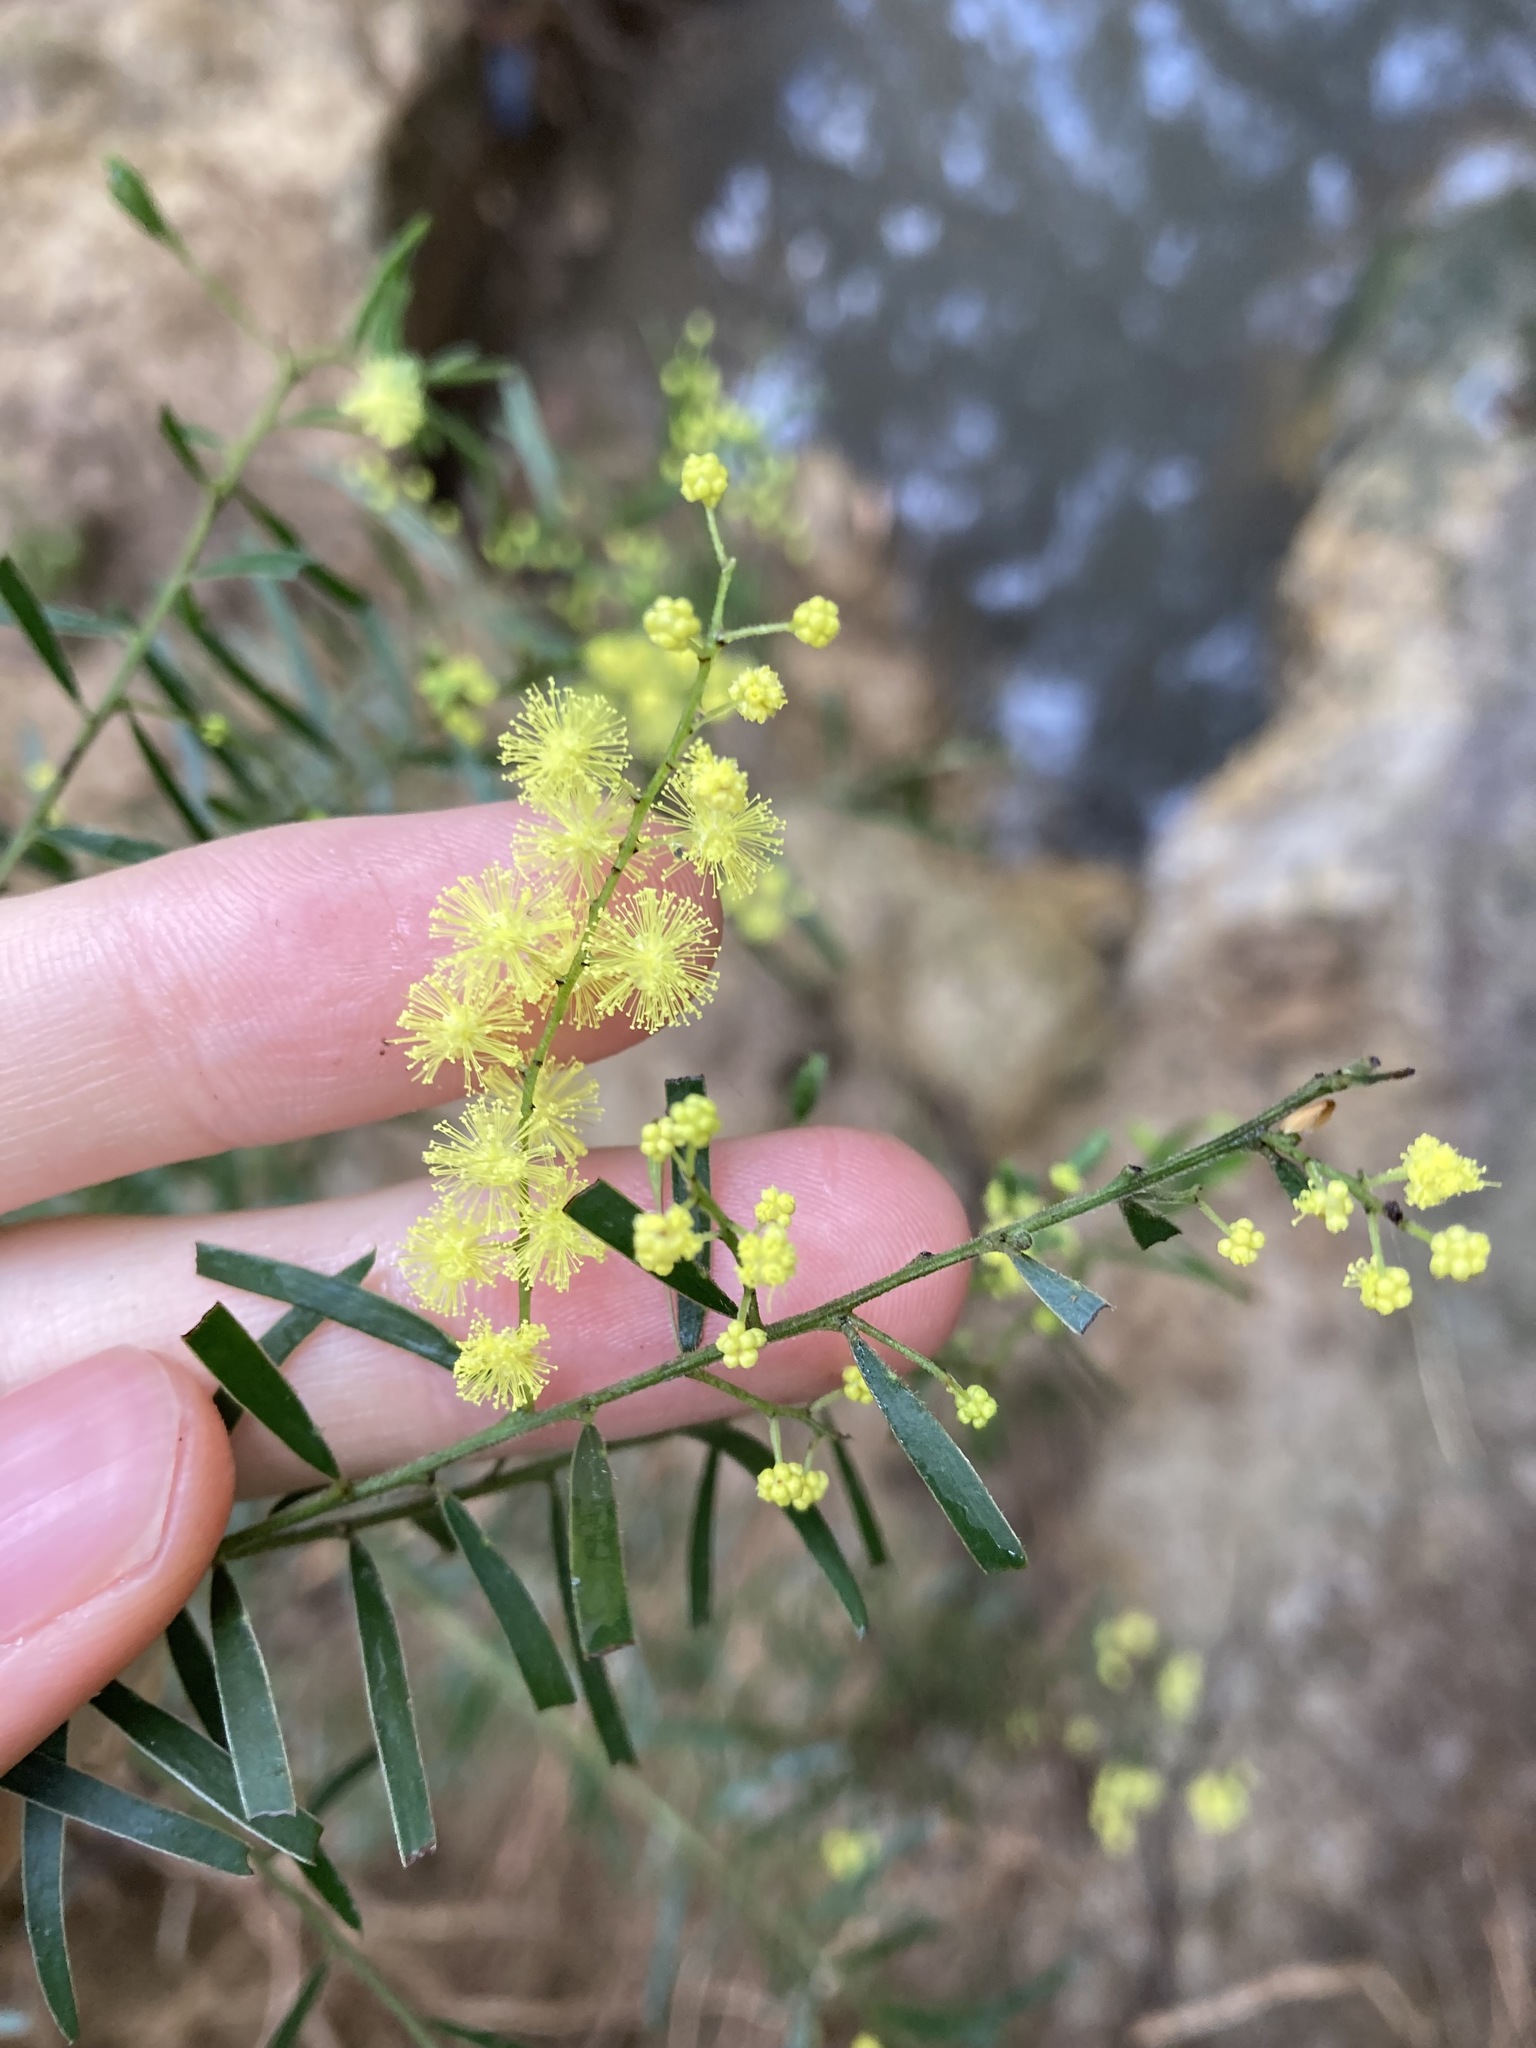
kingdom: Plantae
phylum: Tracheophyta
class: Magnoliopsida
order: Fabales
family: Fabaceae
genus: Acacia
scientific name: Acacia fimbriata
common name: Brisbane golden wattle
